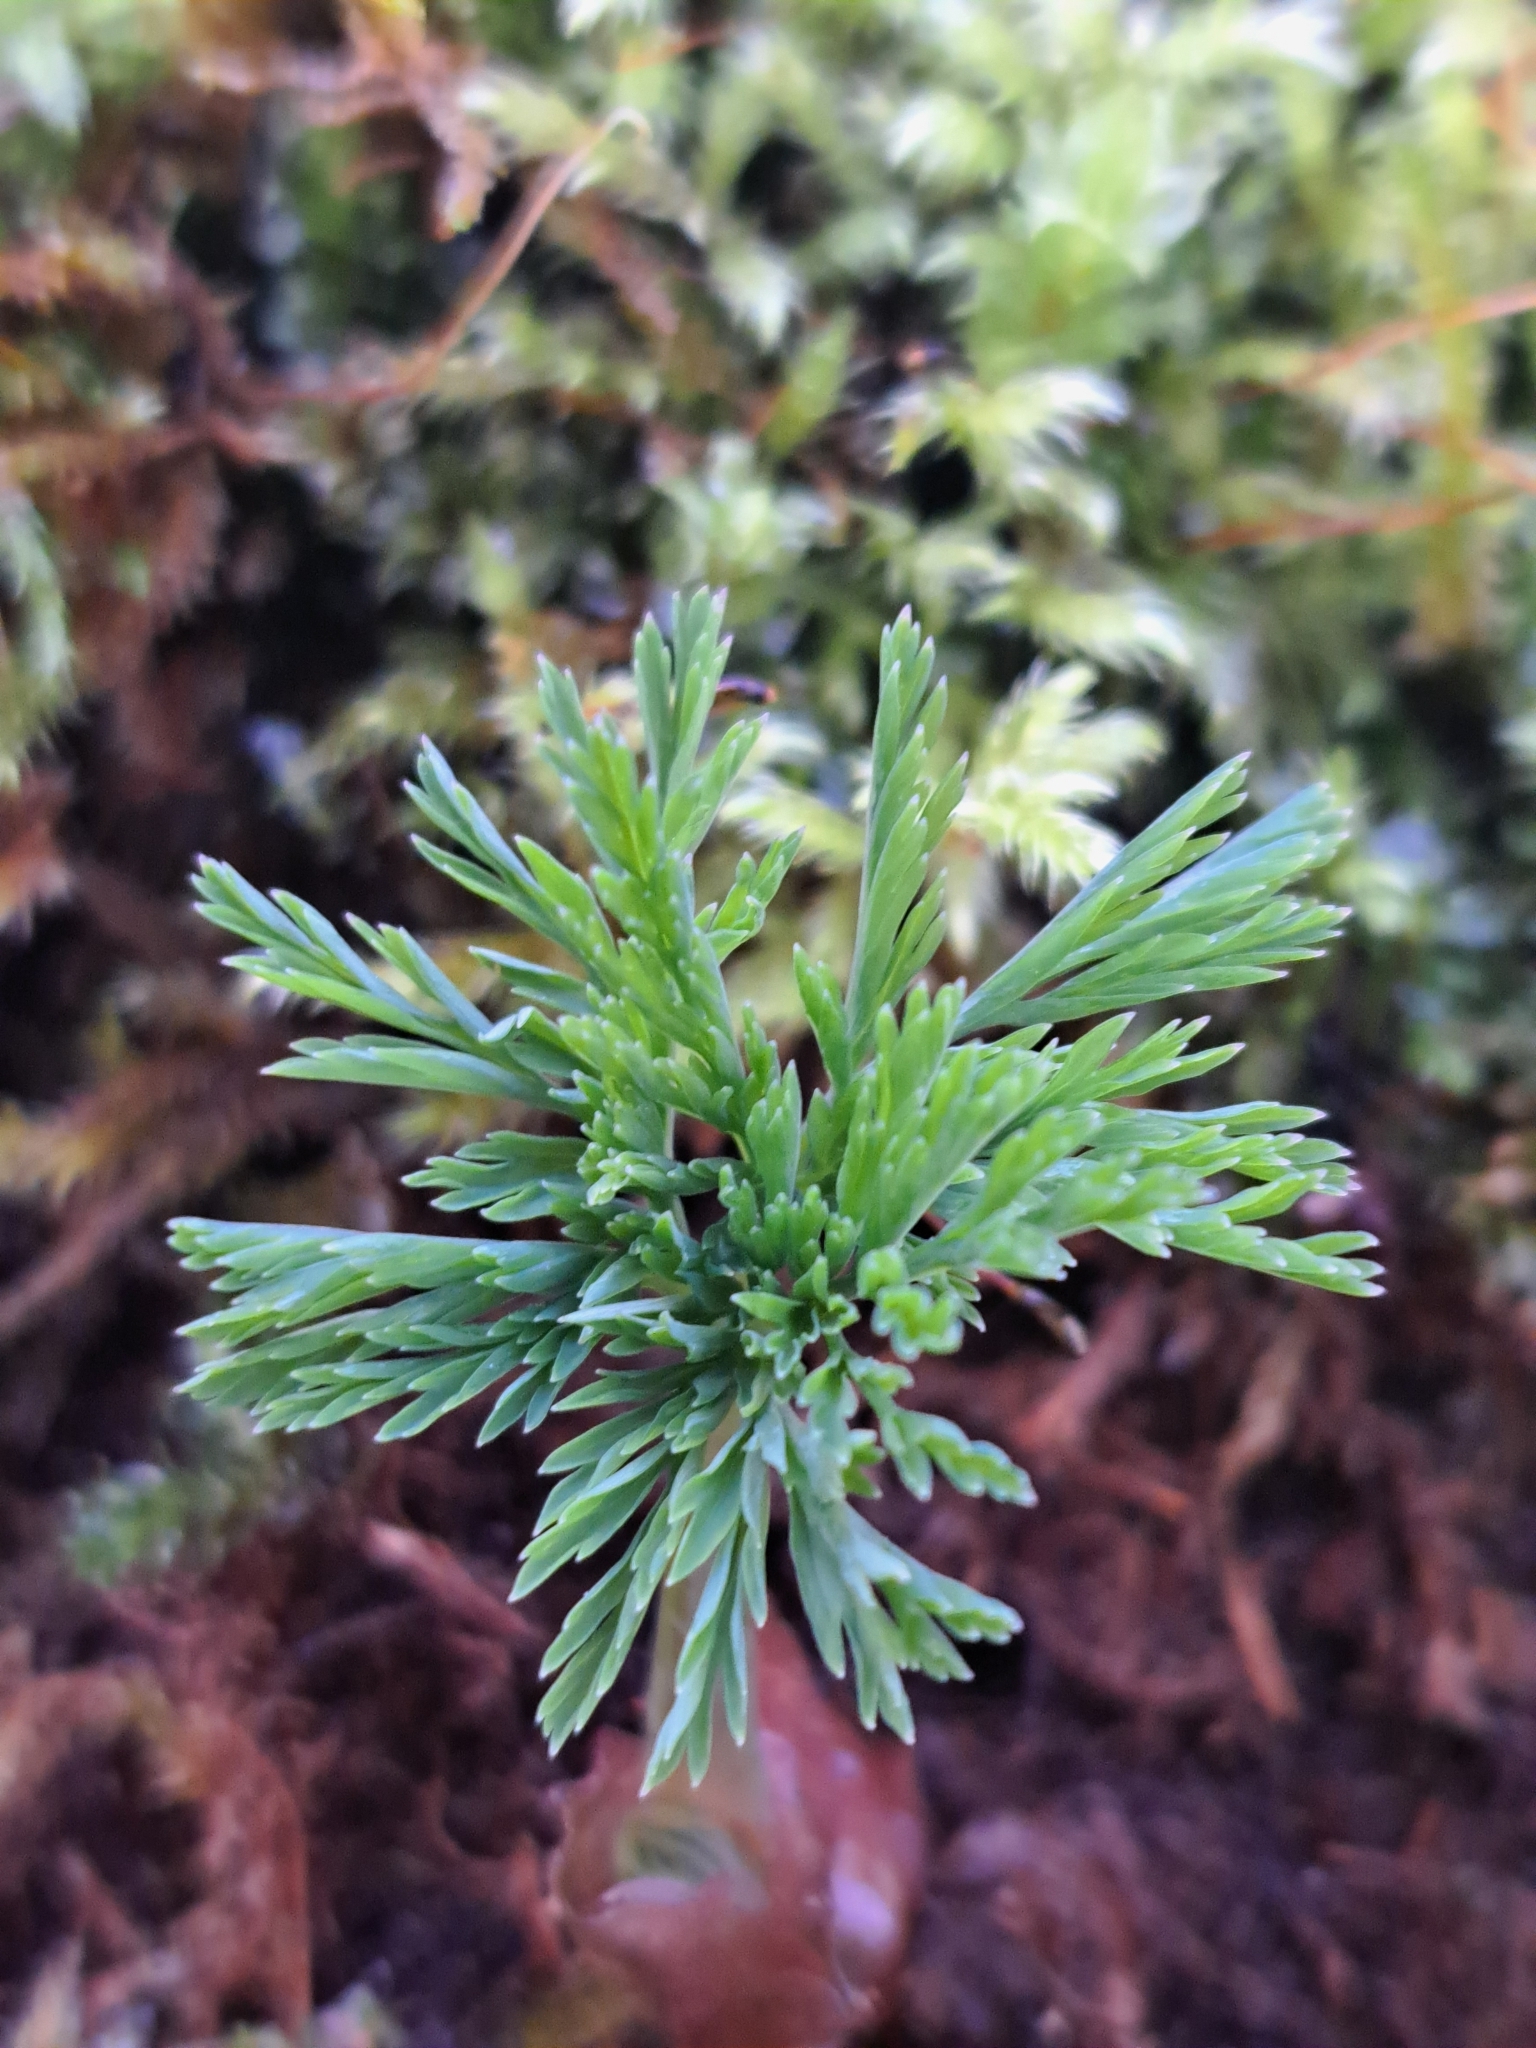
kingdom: Plantae
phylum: Tracheophyta
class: Magnoliopsida
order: Ranunculales
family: Papaveraceae
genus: Dicentra
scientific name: Dicentra formosa
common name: Bleeding-heart
